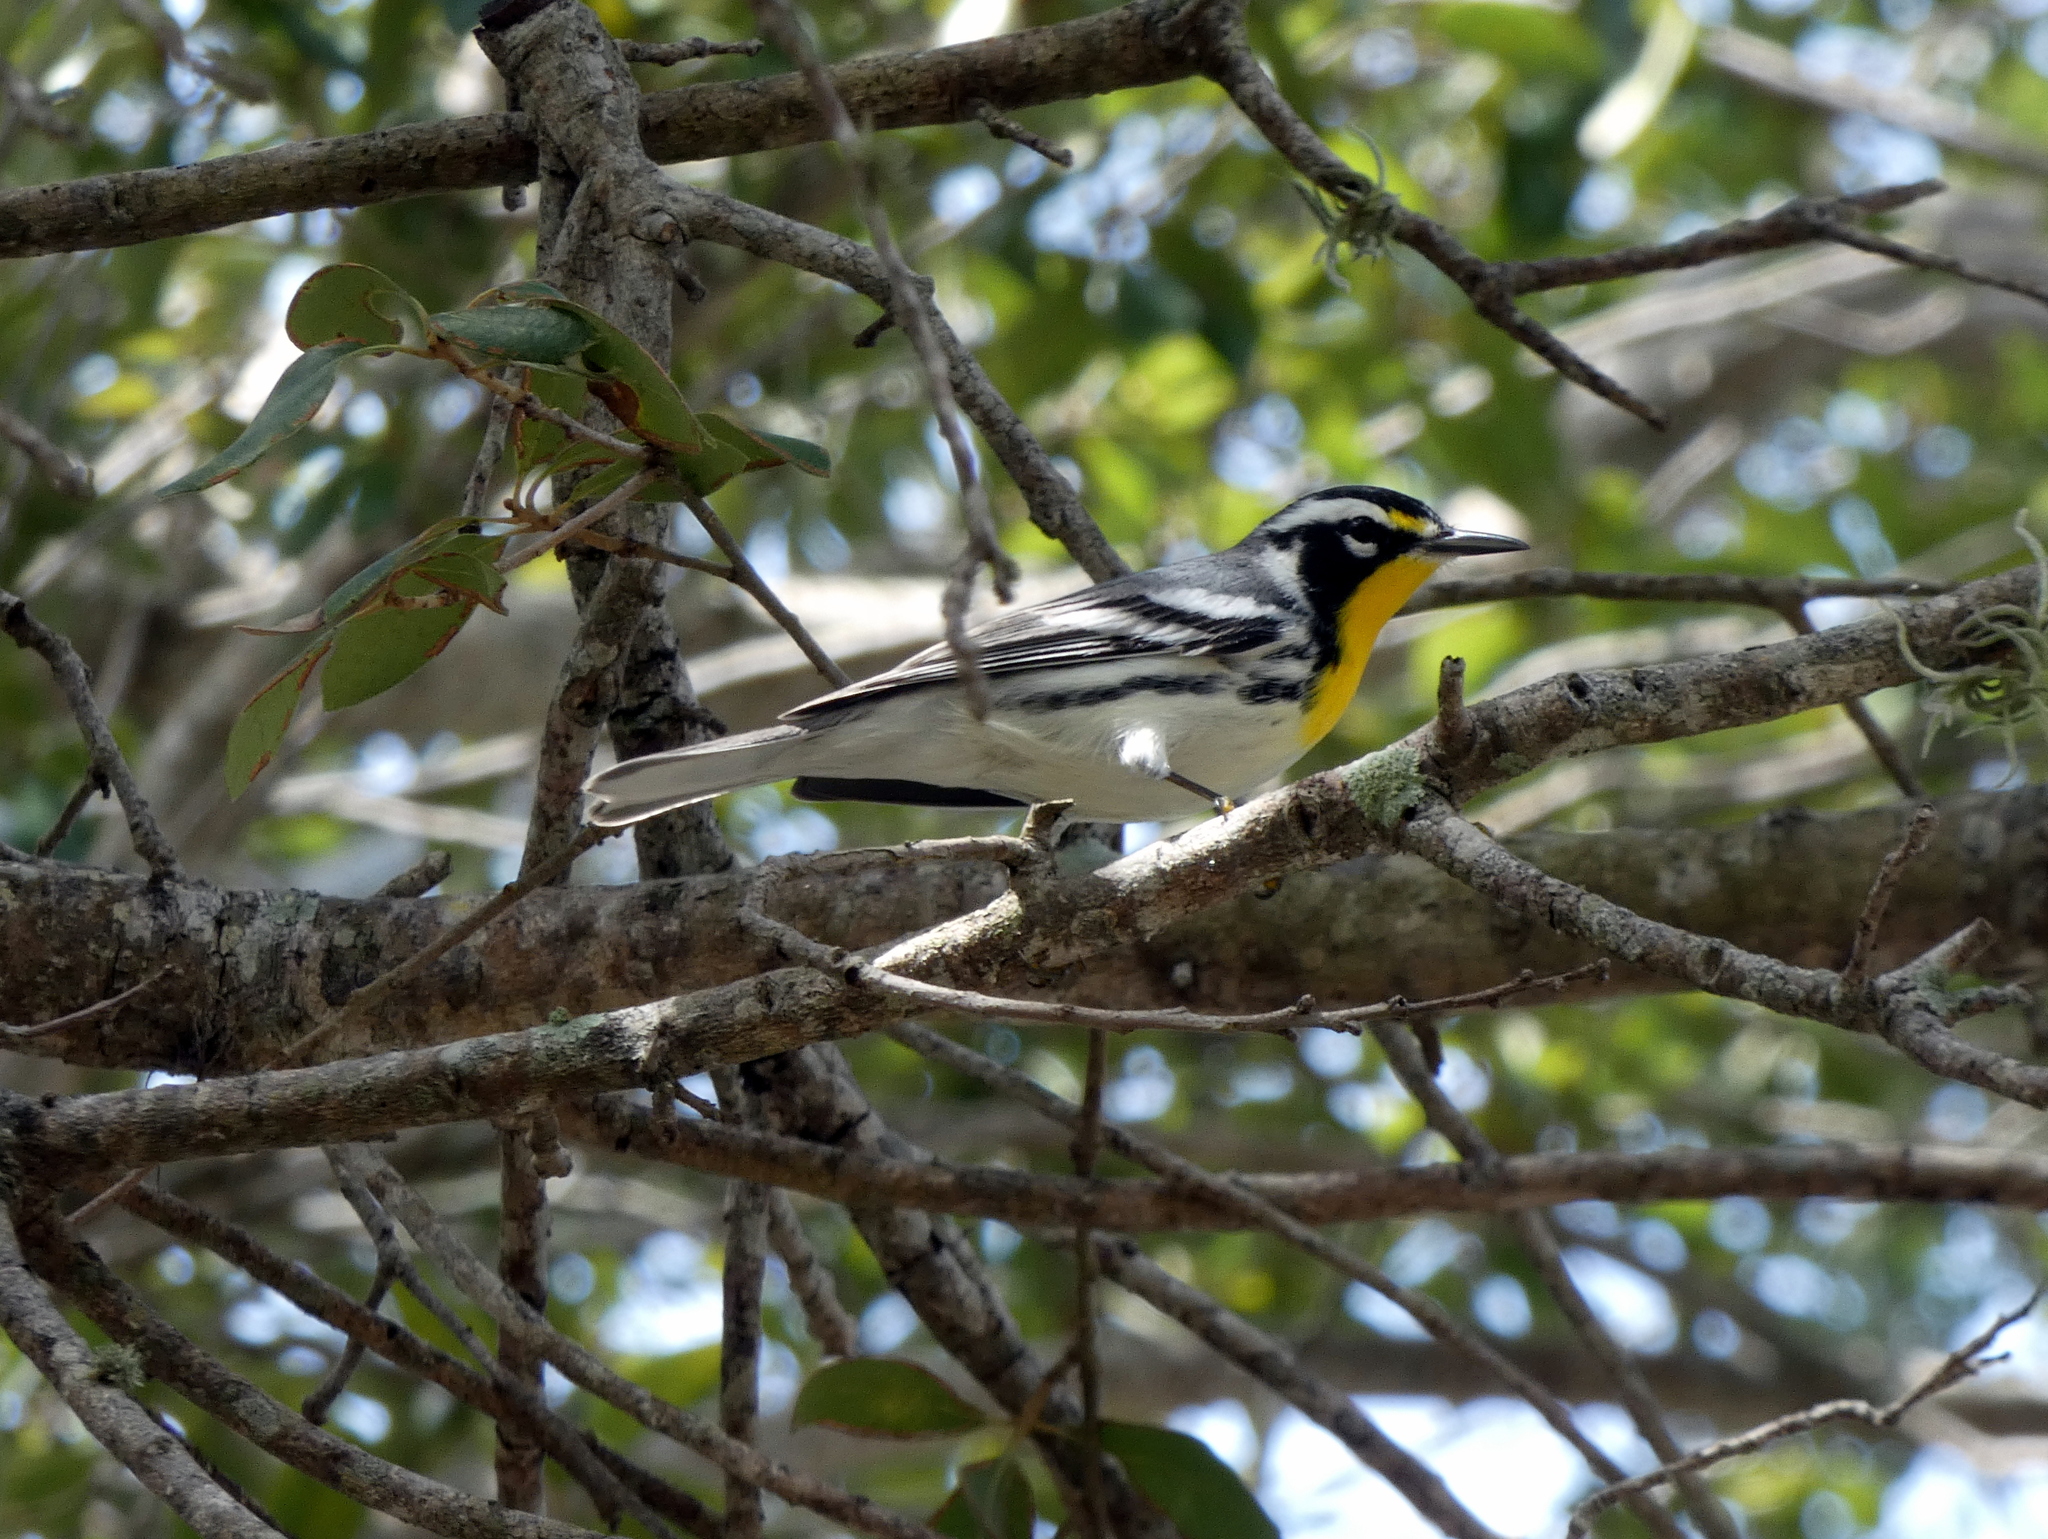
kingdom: Animalia
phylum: Chordata
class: Aves
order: Passeriformes
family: Parulidae
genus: Setophaga
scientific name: Setophaga dominica
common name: Yellow-throated warbler
